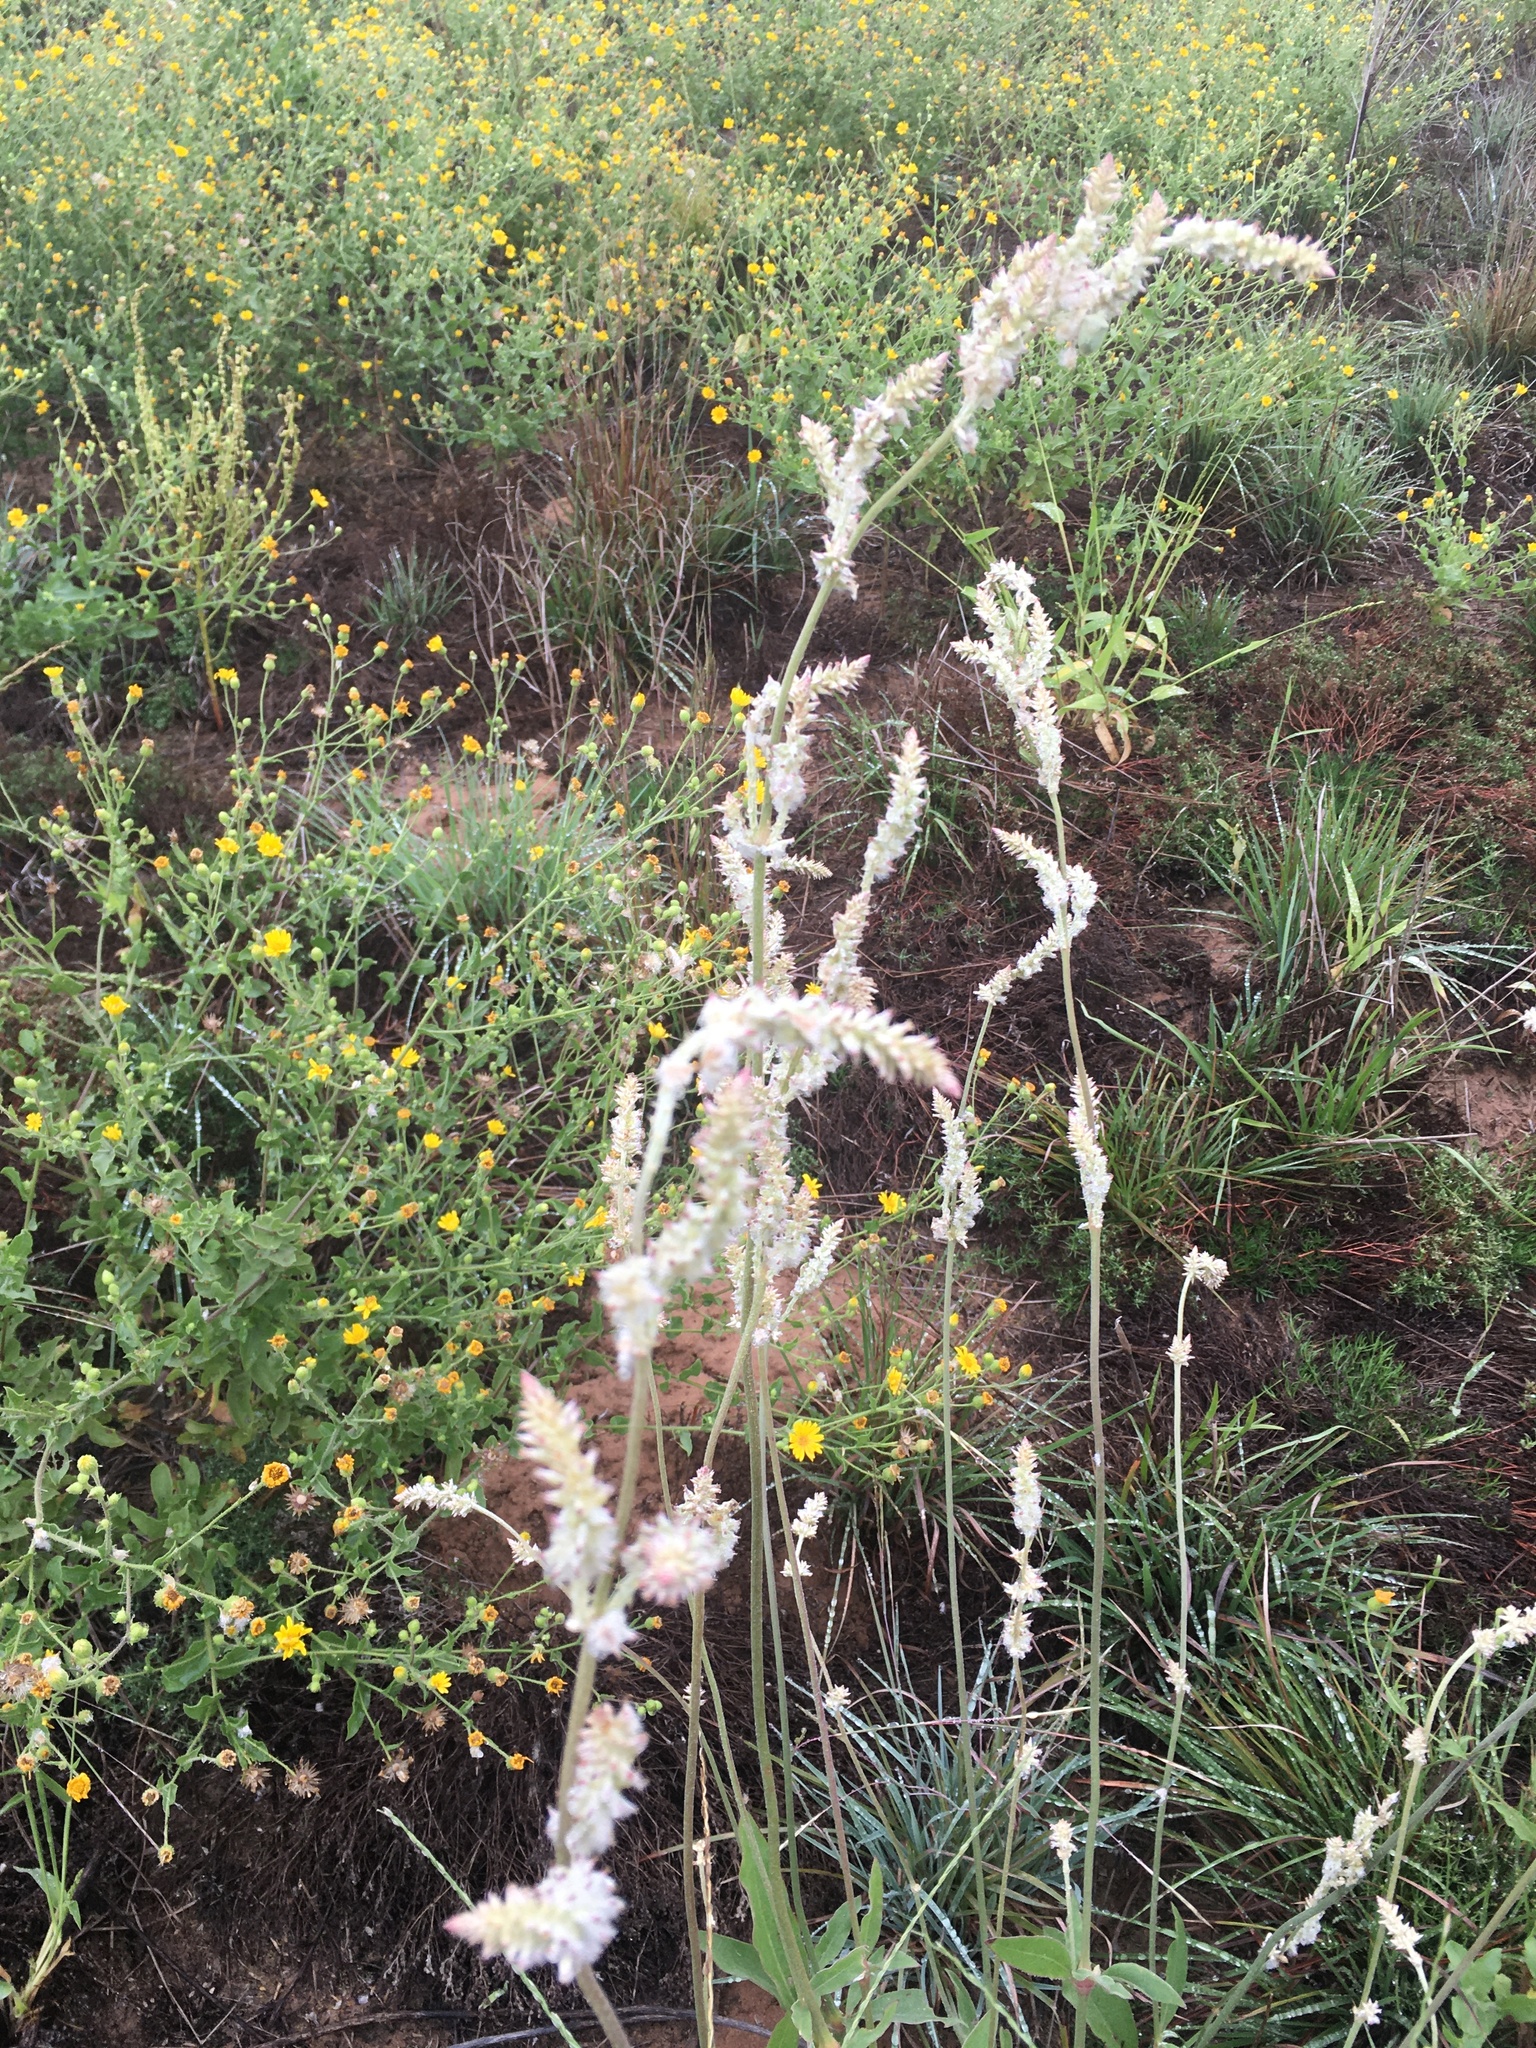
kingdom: Plantae
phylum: Tracheophyta
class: Magnoliopsida
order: Caryophyllales
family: Amaranthaceae
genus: Froelichia
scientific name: Froelichia floridana
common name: Florida snake-cotton
